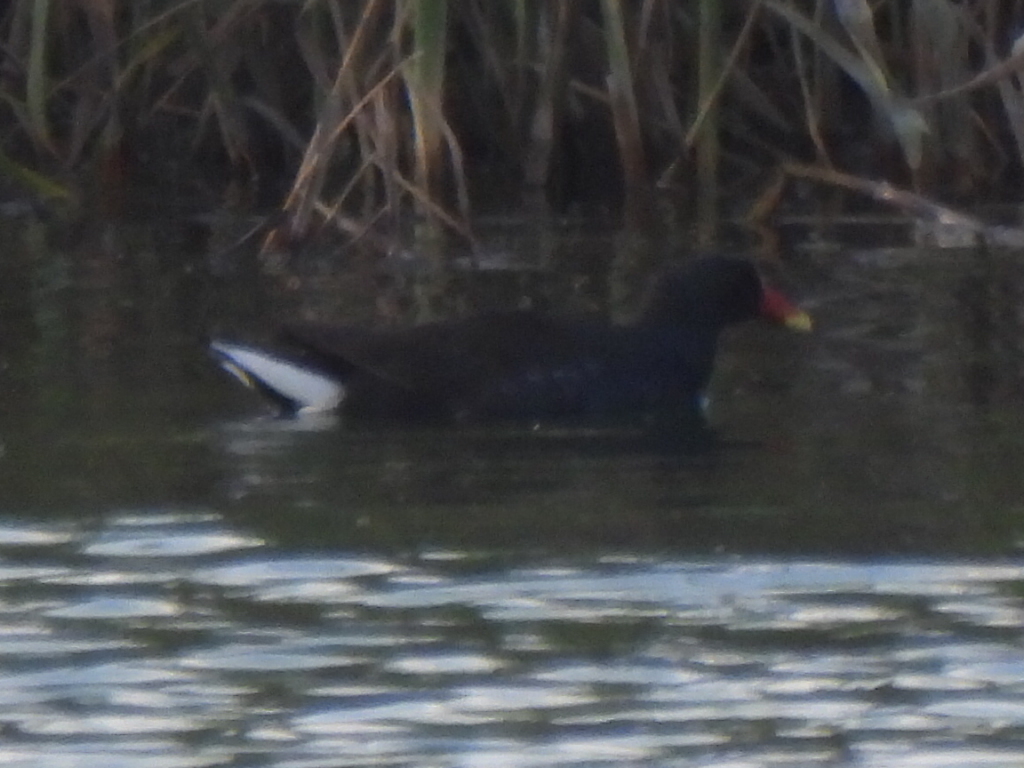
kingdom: Animalia
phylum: Chordata
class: Aves
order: Gruiformes
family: Rallidae
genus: Gallinula
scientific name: Gallinula chloropus
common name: Common moorhen
